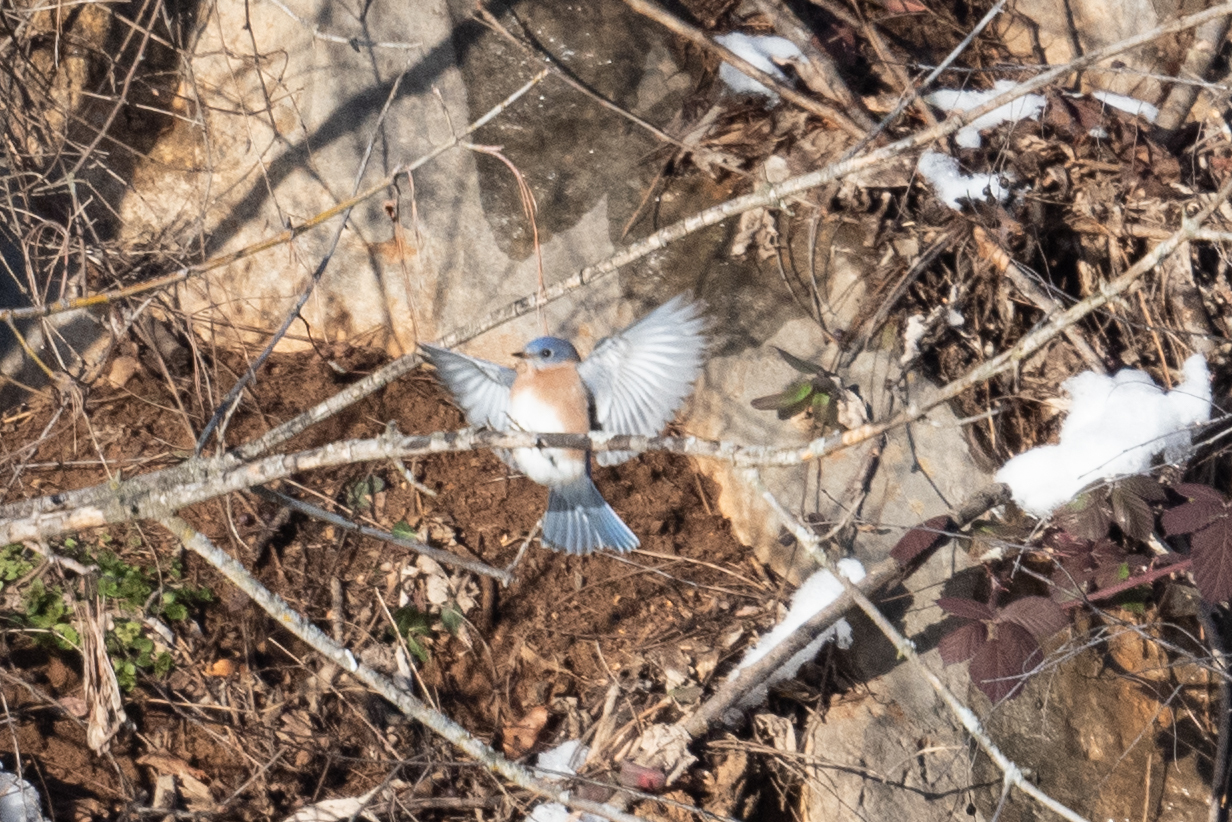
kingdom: Animalia
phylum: Chordata
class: Aves
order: Passeriformes
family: Turdidae
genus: Sialia
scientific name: Sialia sialis
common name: Eastern bluebird
